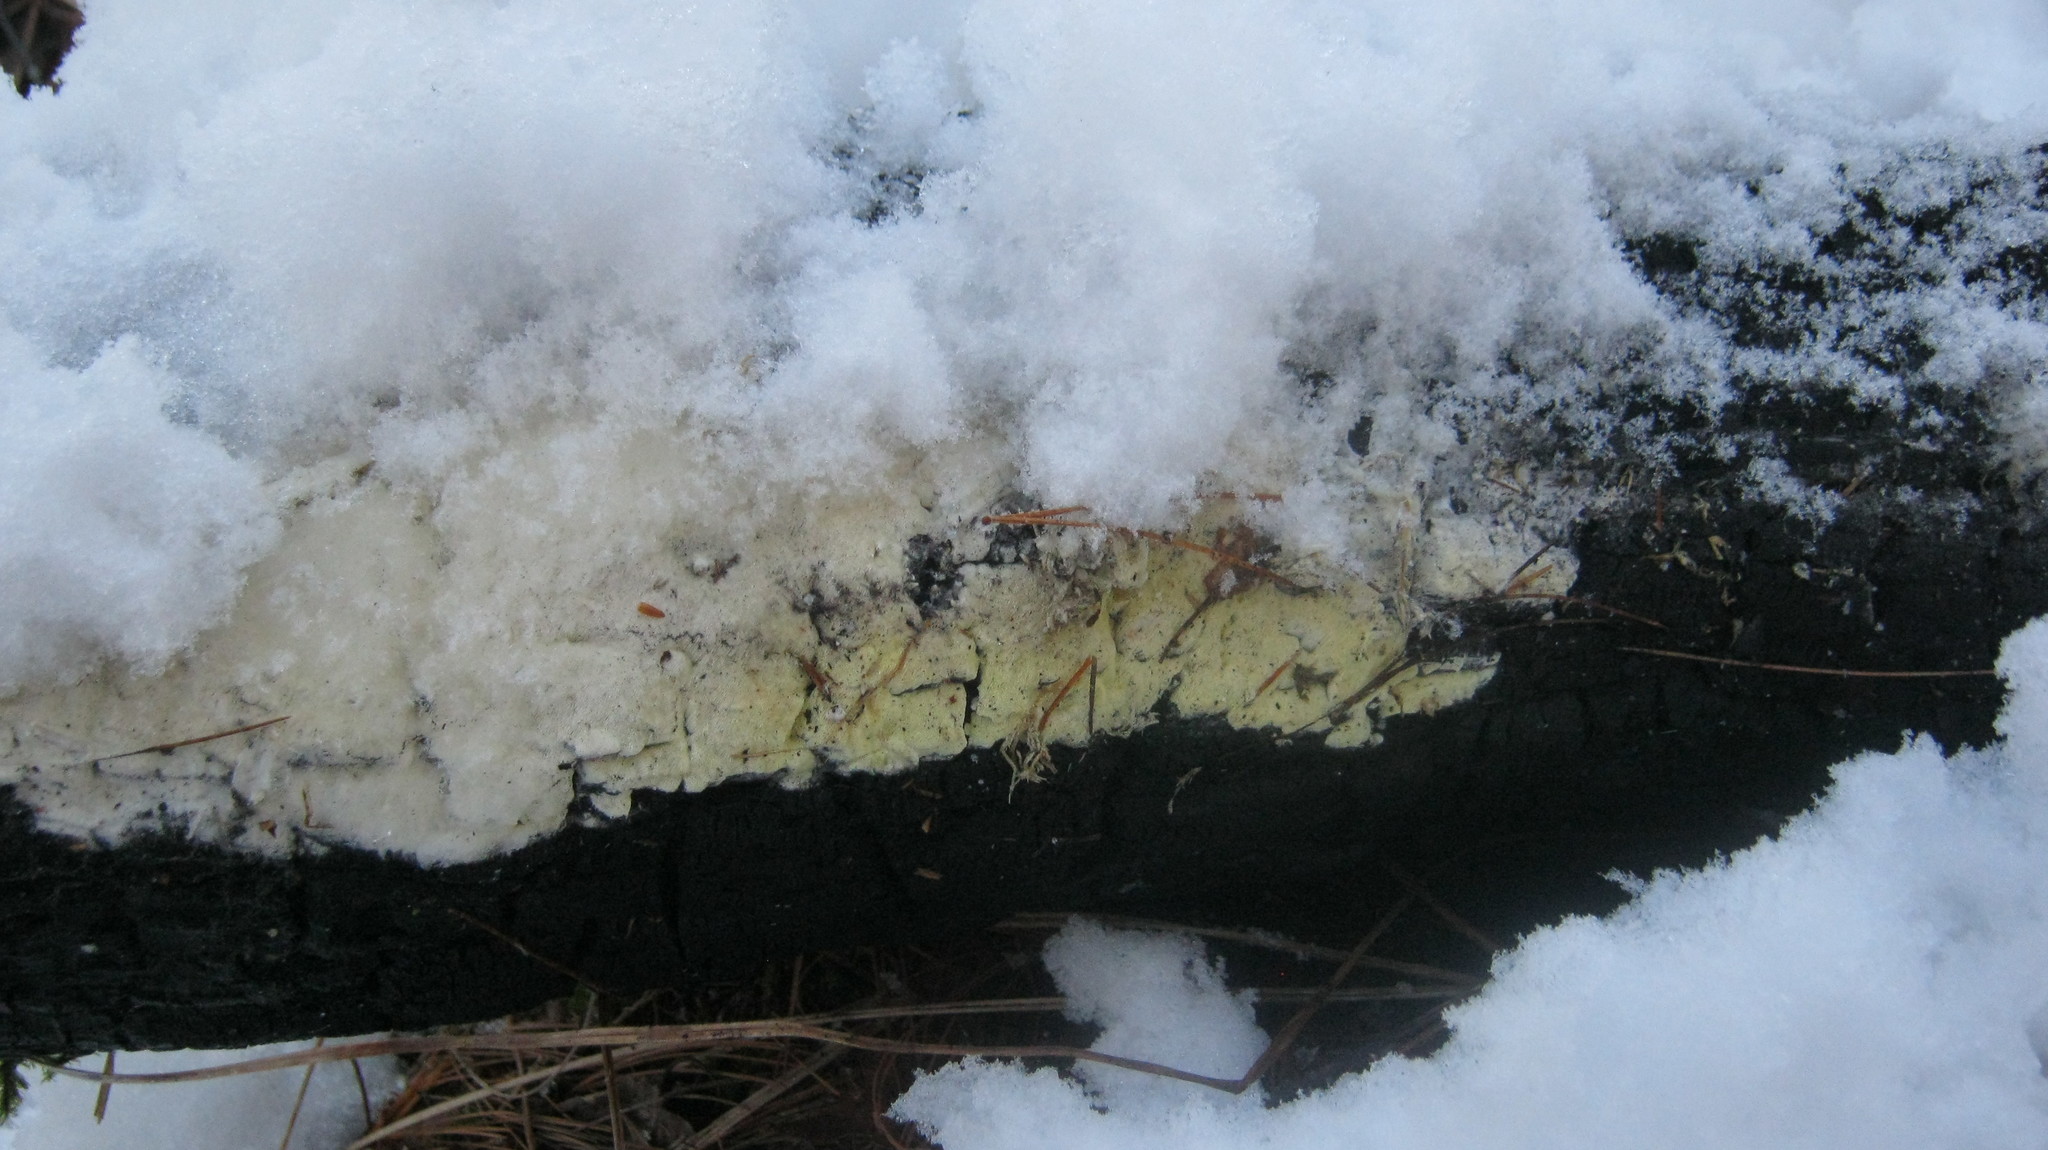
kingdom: Fungi
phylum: Basidiomycota
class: Agaricomycetes
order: Polyporales
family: Fomitopsidaceae
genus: Daedalea
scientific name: Daedalea xantha
